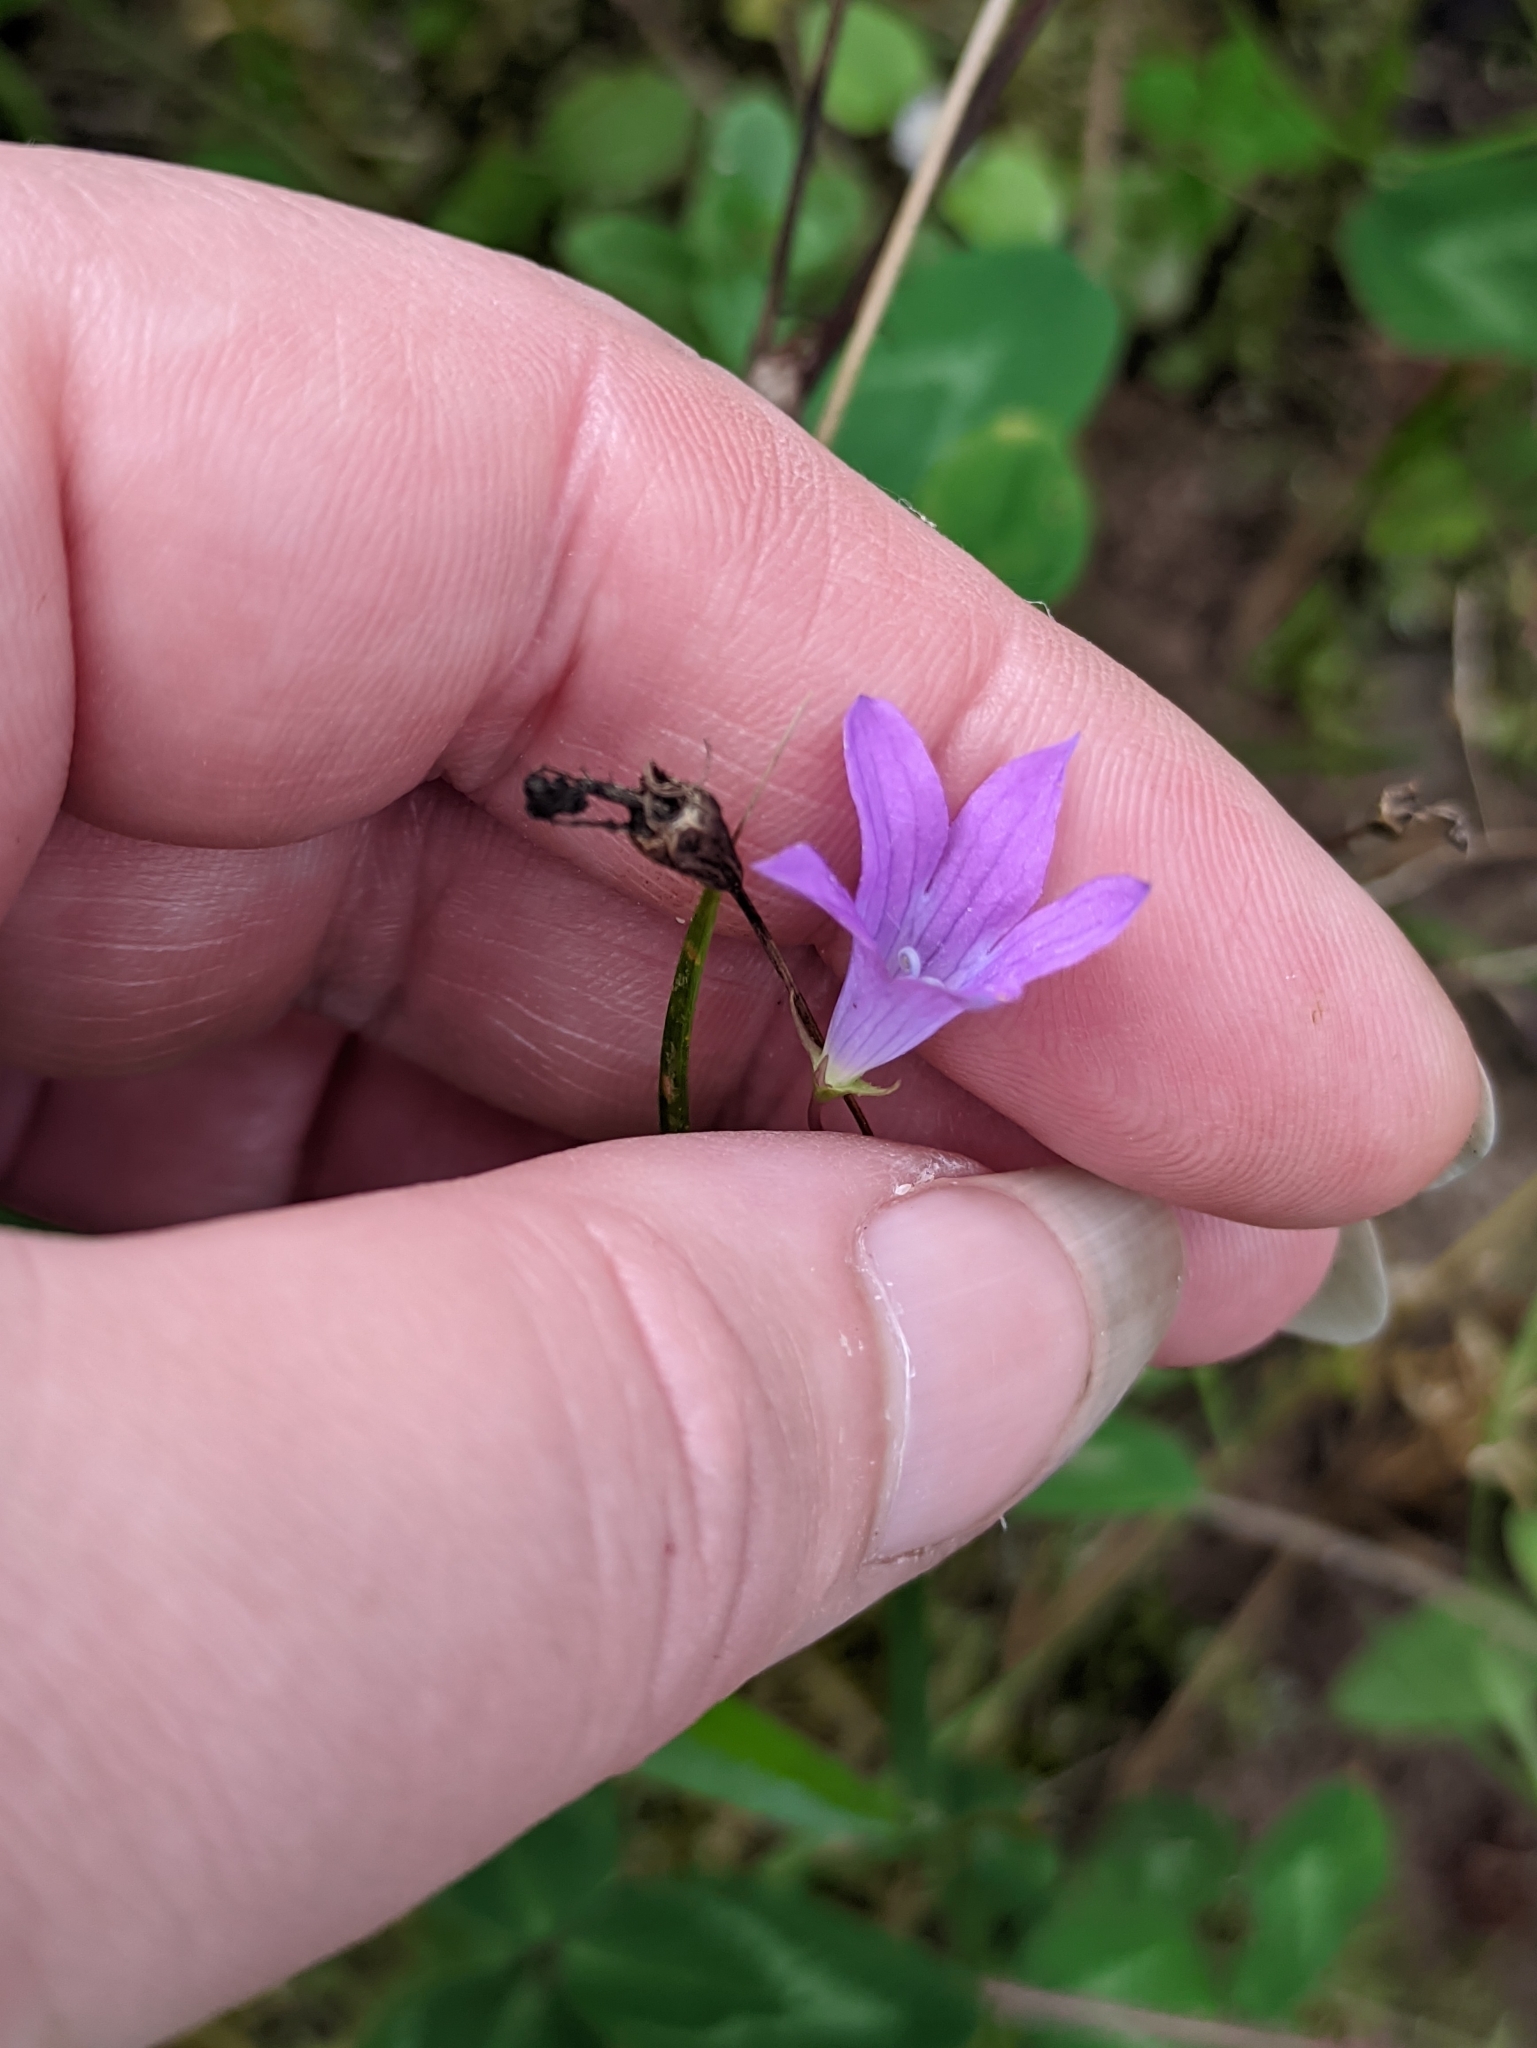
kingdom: Plantae
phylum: Tracheophyta
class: Magnoliopsida
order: Asterales
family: Campanulaceae
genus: Campanula
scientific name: Campanula patula
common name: Spreading bellflower
